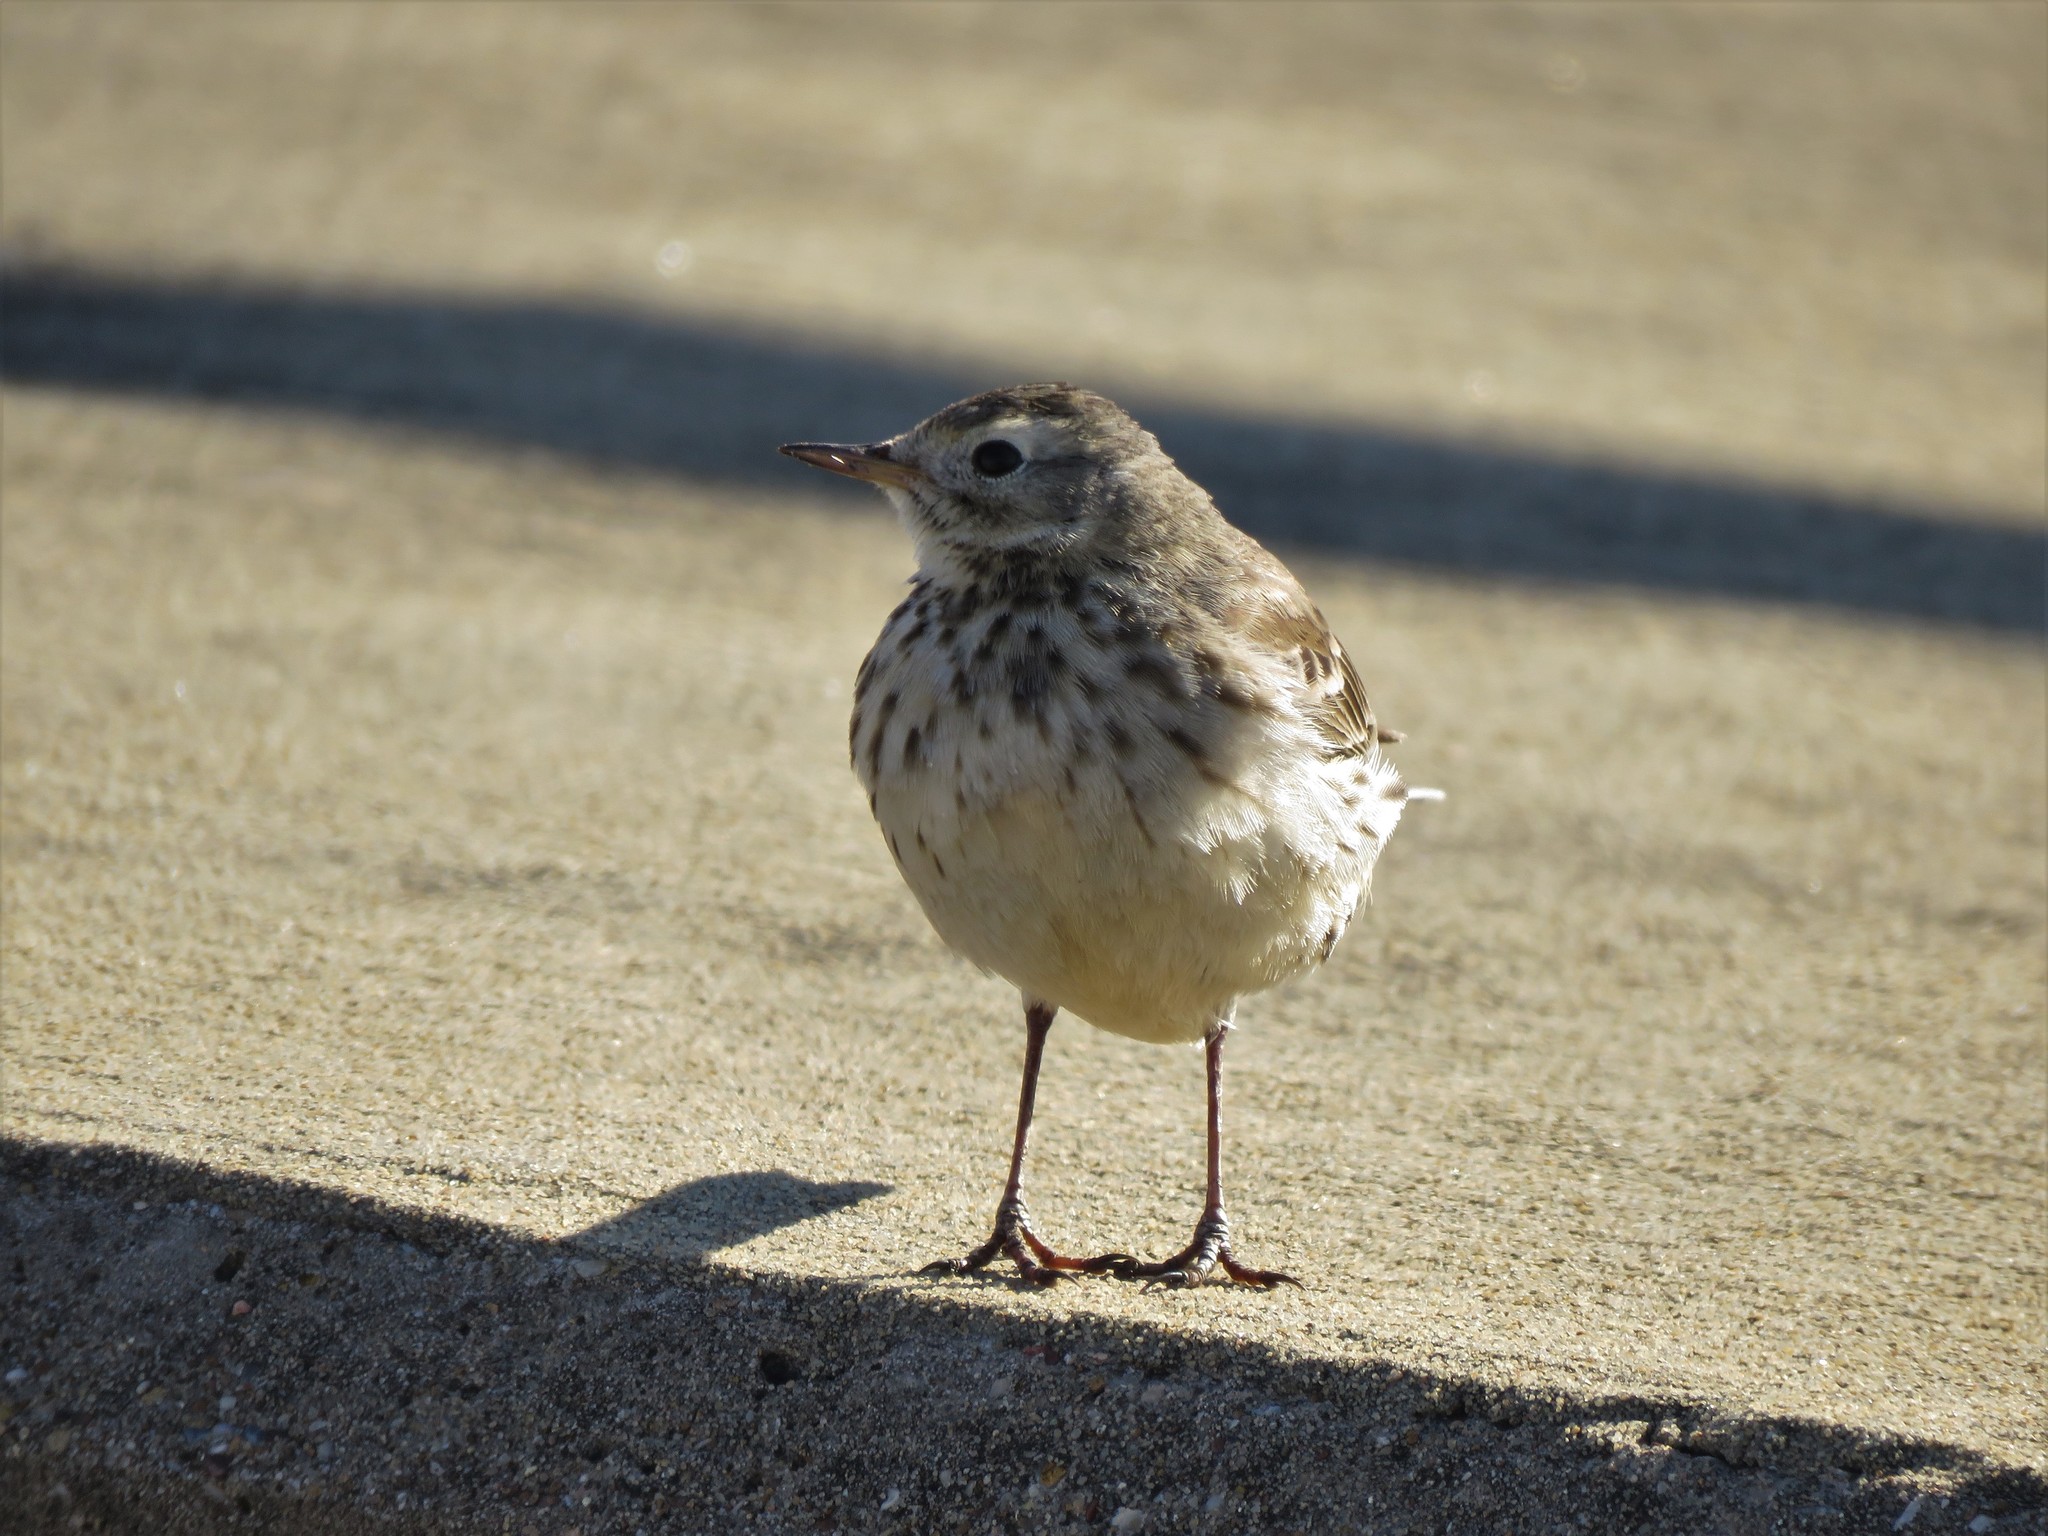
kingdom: Animalia
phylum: Chordata
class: Aves
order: Passeriformes
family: Motacillidae
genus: Anthus
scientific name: Anthus rubescens
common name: Buff-bellied pipit
